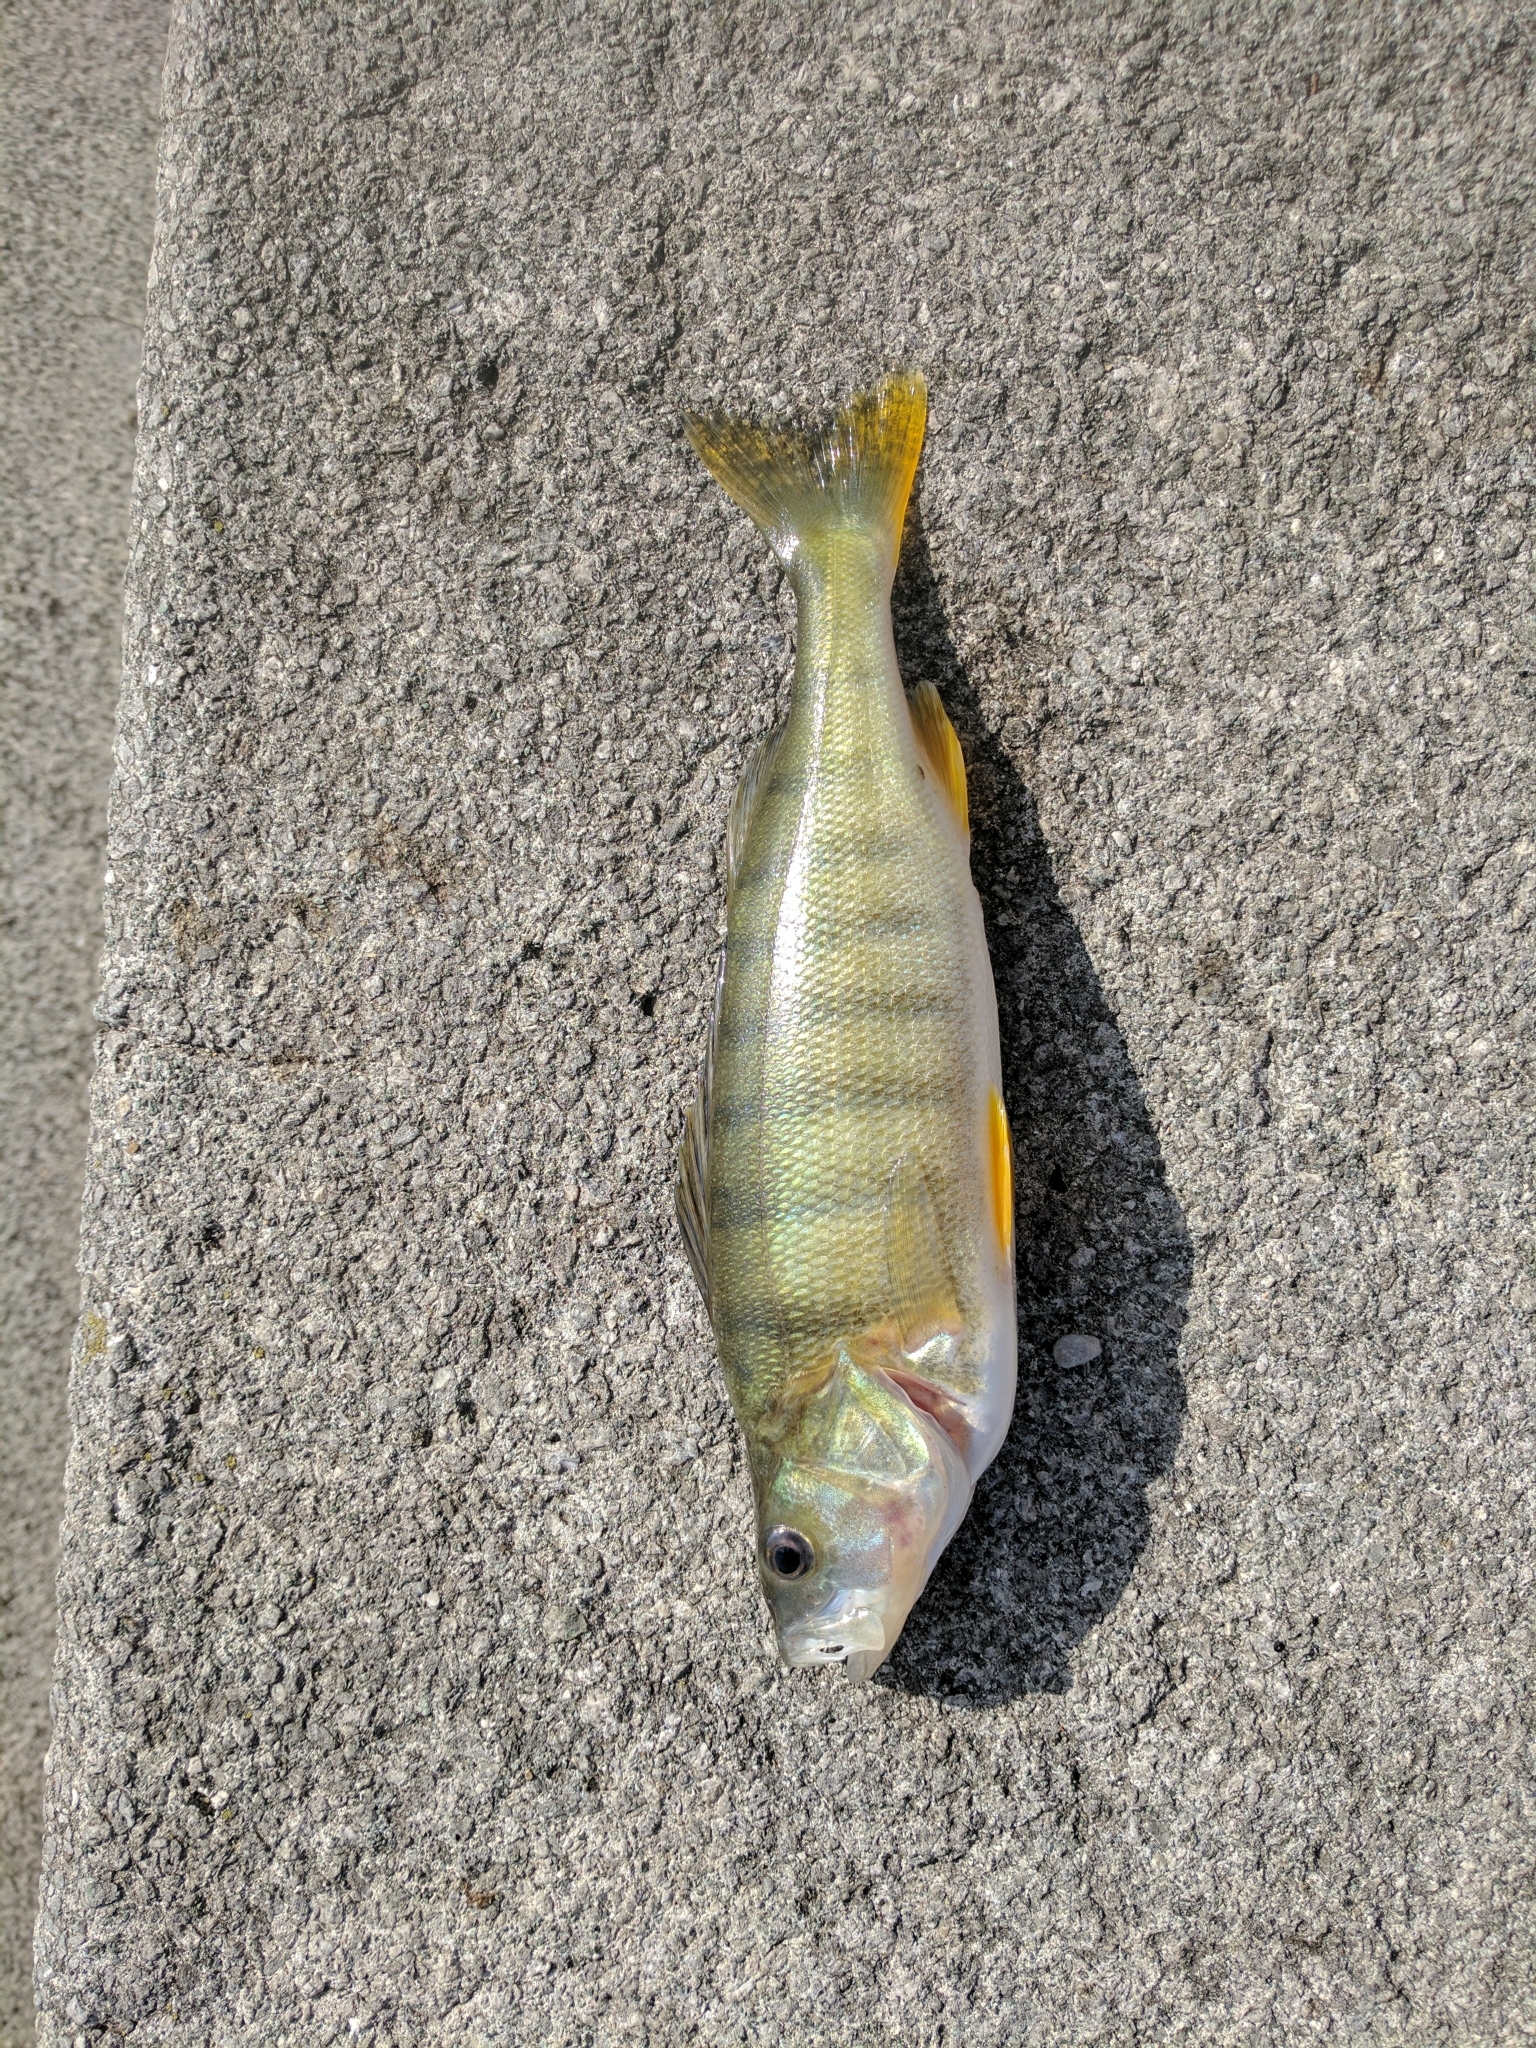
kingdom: Animalia
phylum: Chordata
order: Perciformes
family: Percidae
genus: Perca
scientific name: Perca fluviatilis
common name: Perch
